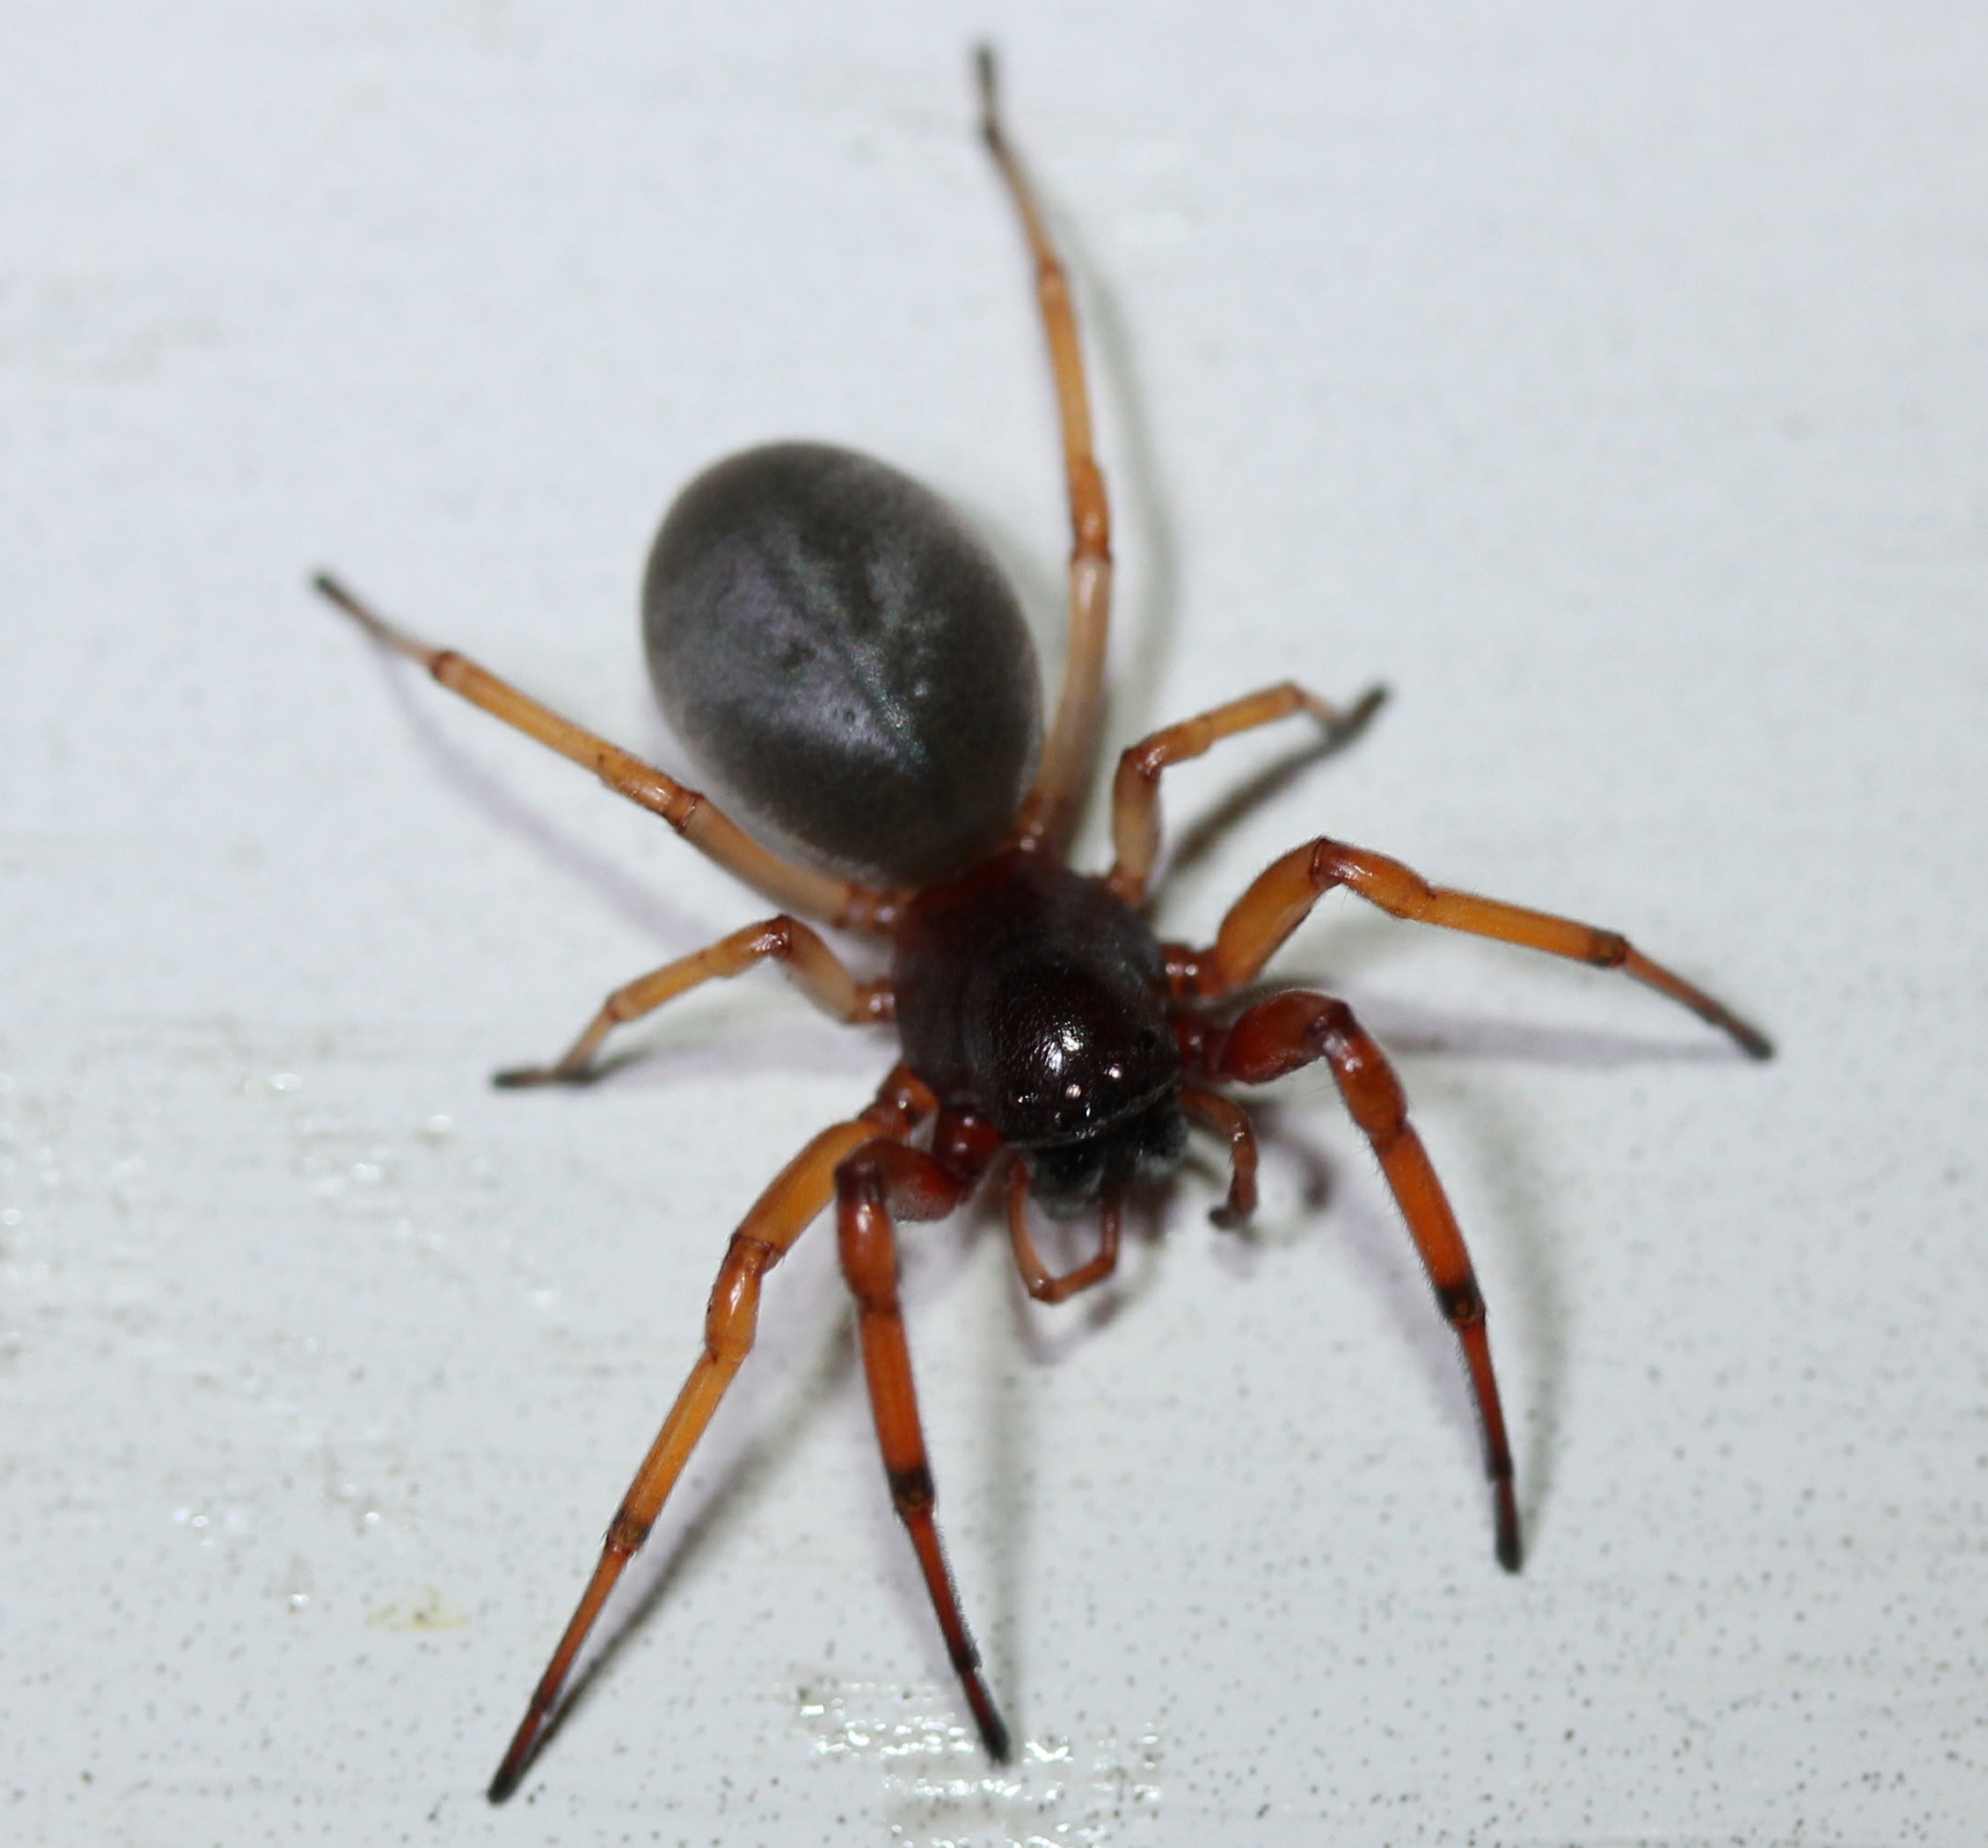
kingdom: Animalia
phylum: Arthropoda
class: Arachnida
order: Araneae
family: Trachelidae
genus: Trachelas
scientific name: Trachelas tranquillus
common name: Broad-faced sac spider
